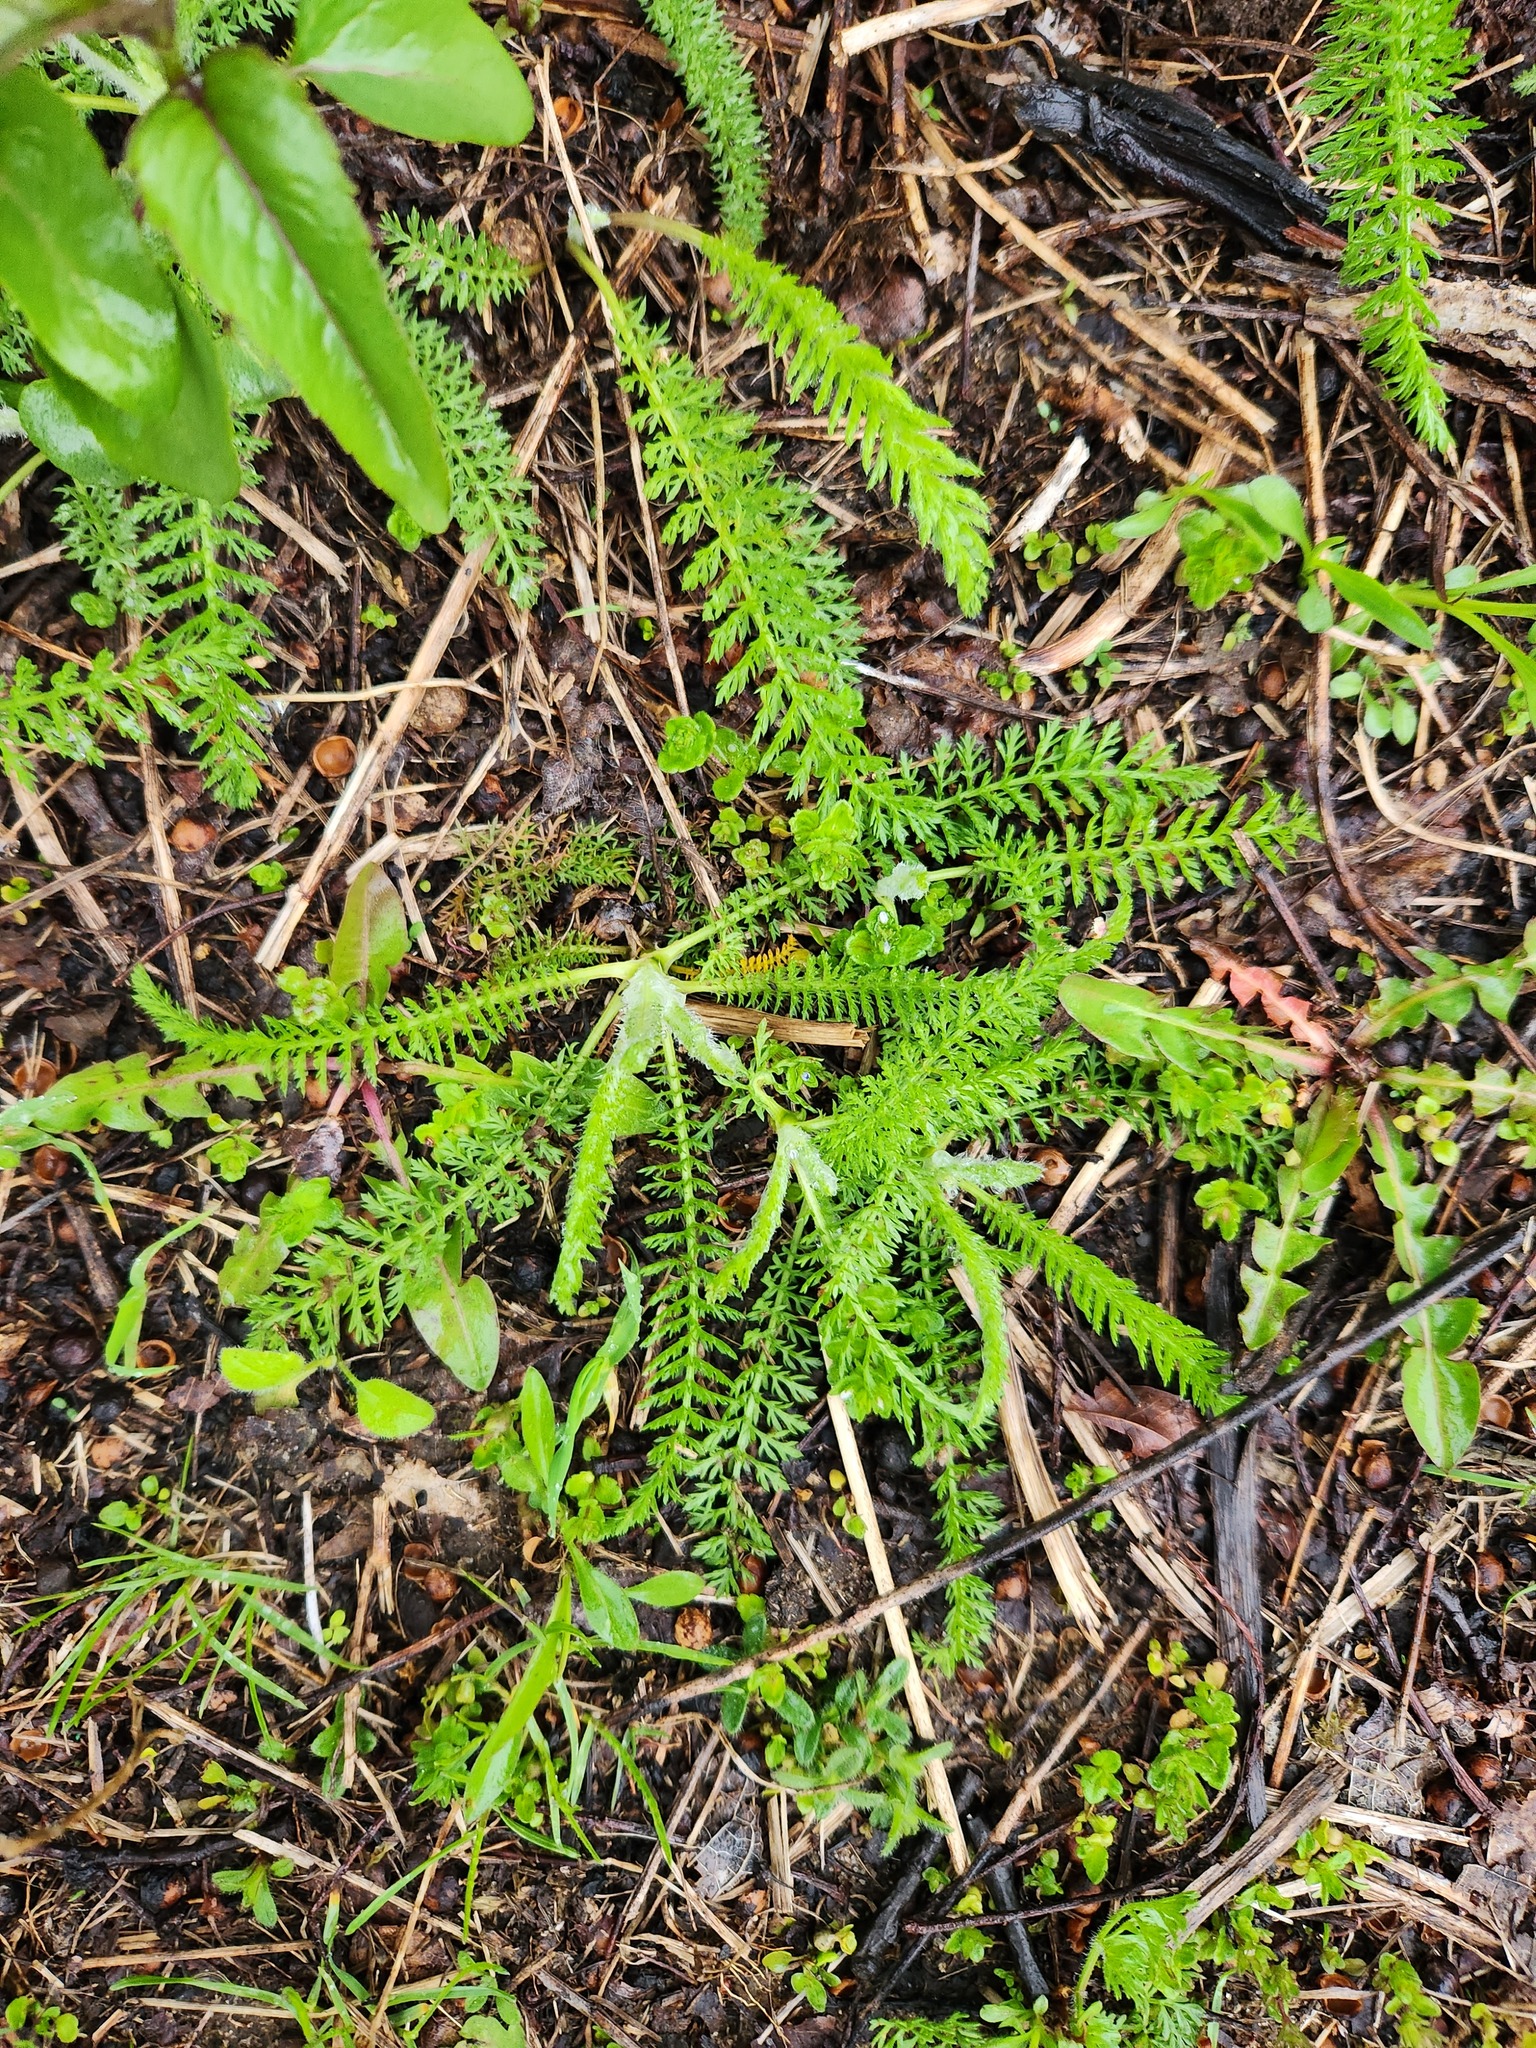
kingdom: Plantae
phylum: Tracheophyta
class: Magnoliopsida
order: Asterales
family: Asteraceae
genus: Achillea
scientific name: Achillea millefolium
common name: Yarrow
